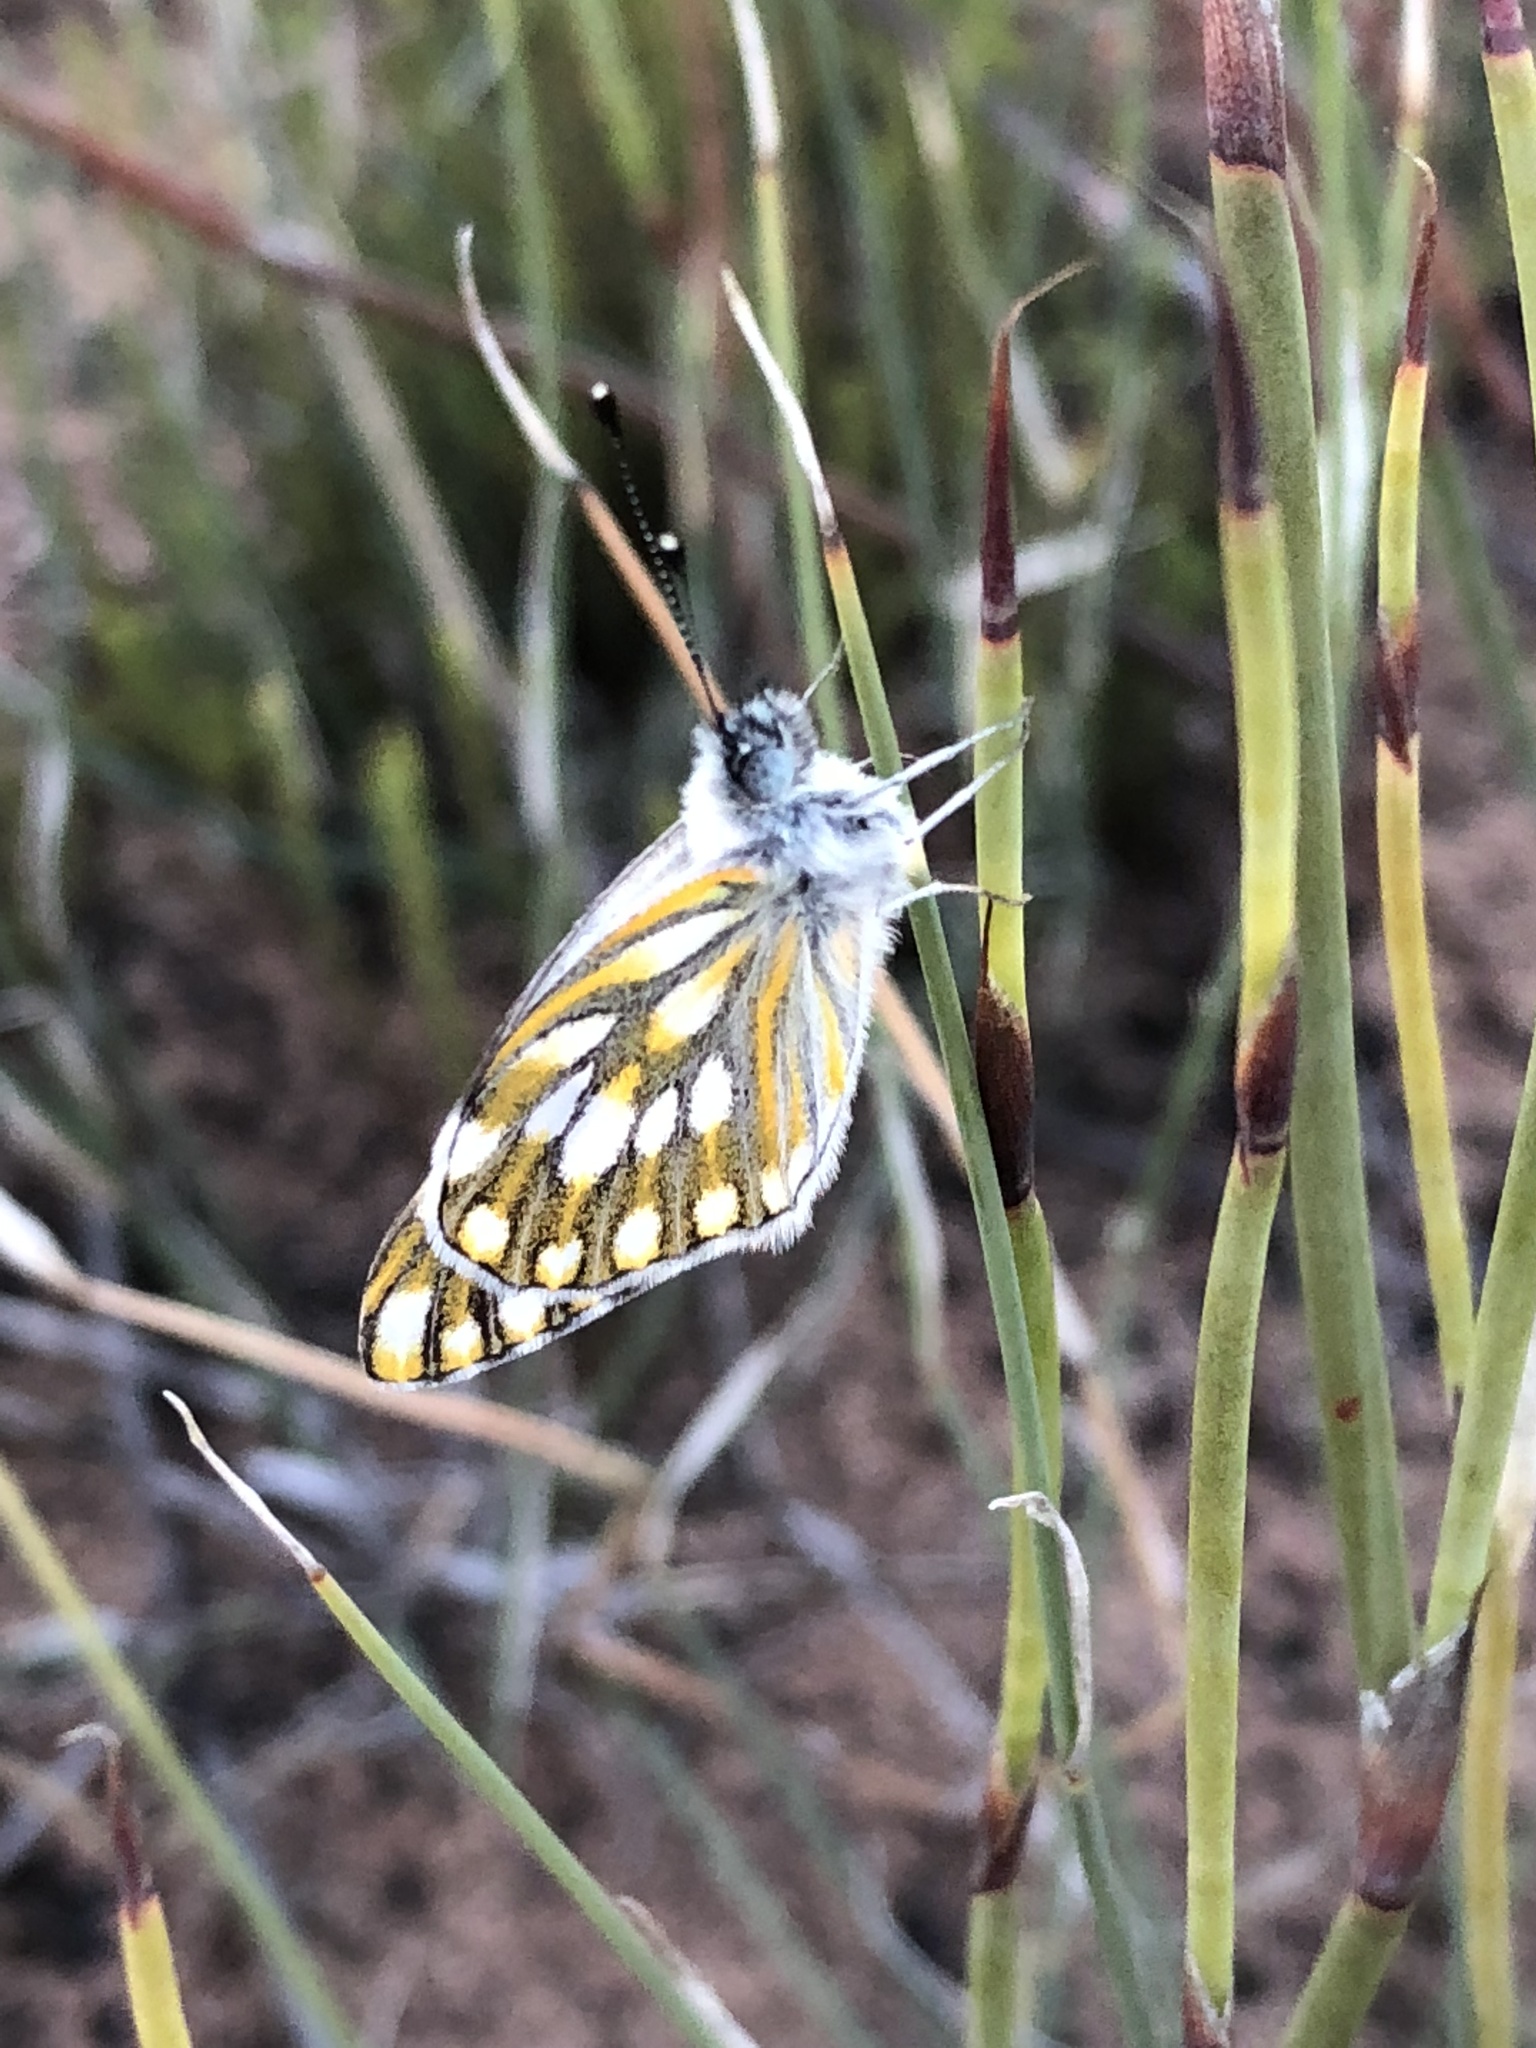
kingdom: Animalia
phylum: Arthropoda
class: Insecta
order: Lepidoptera
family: Pieridae
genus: Pontia
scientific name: Pontia helice
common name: Meadow white
